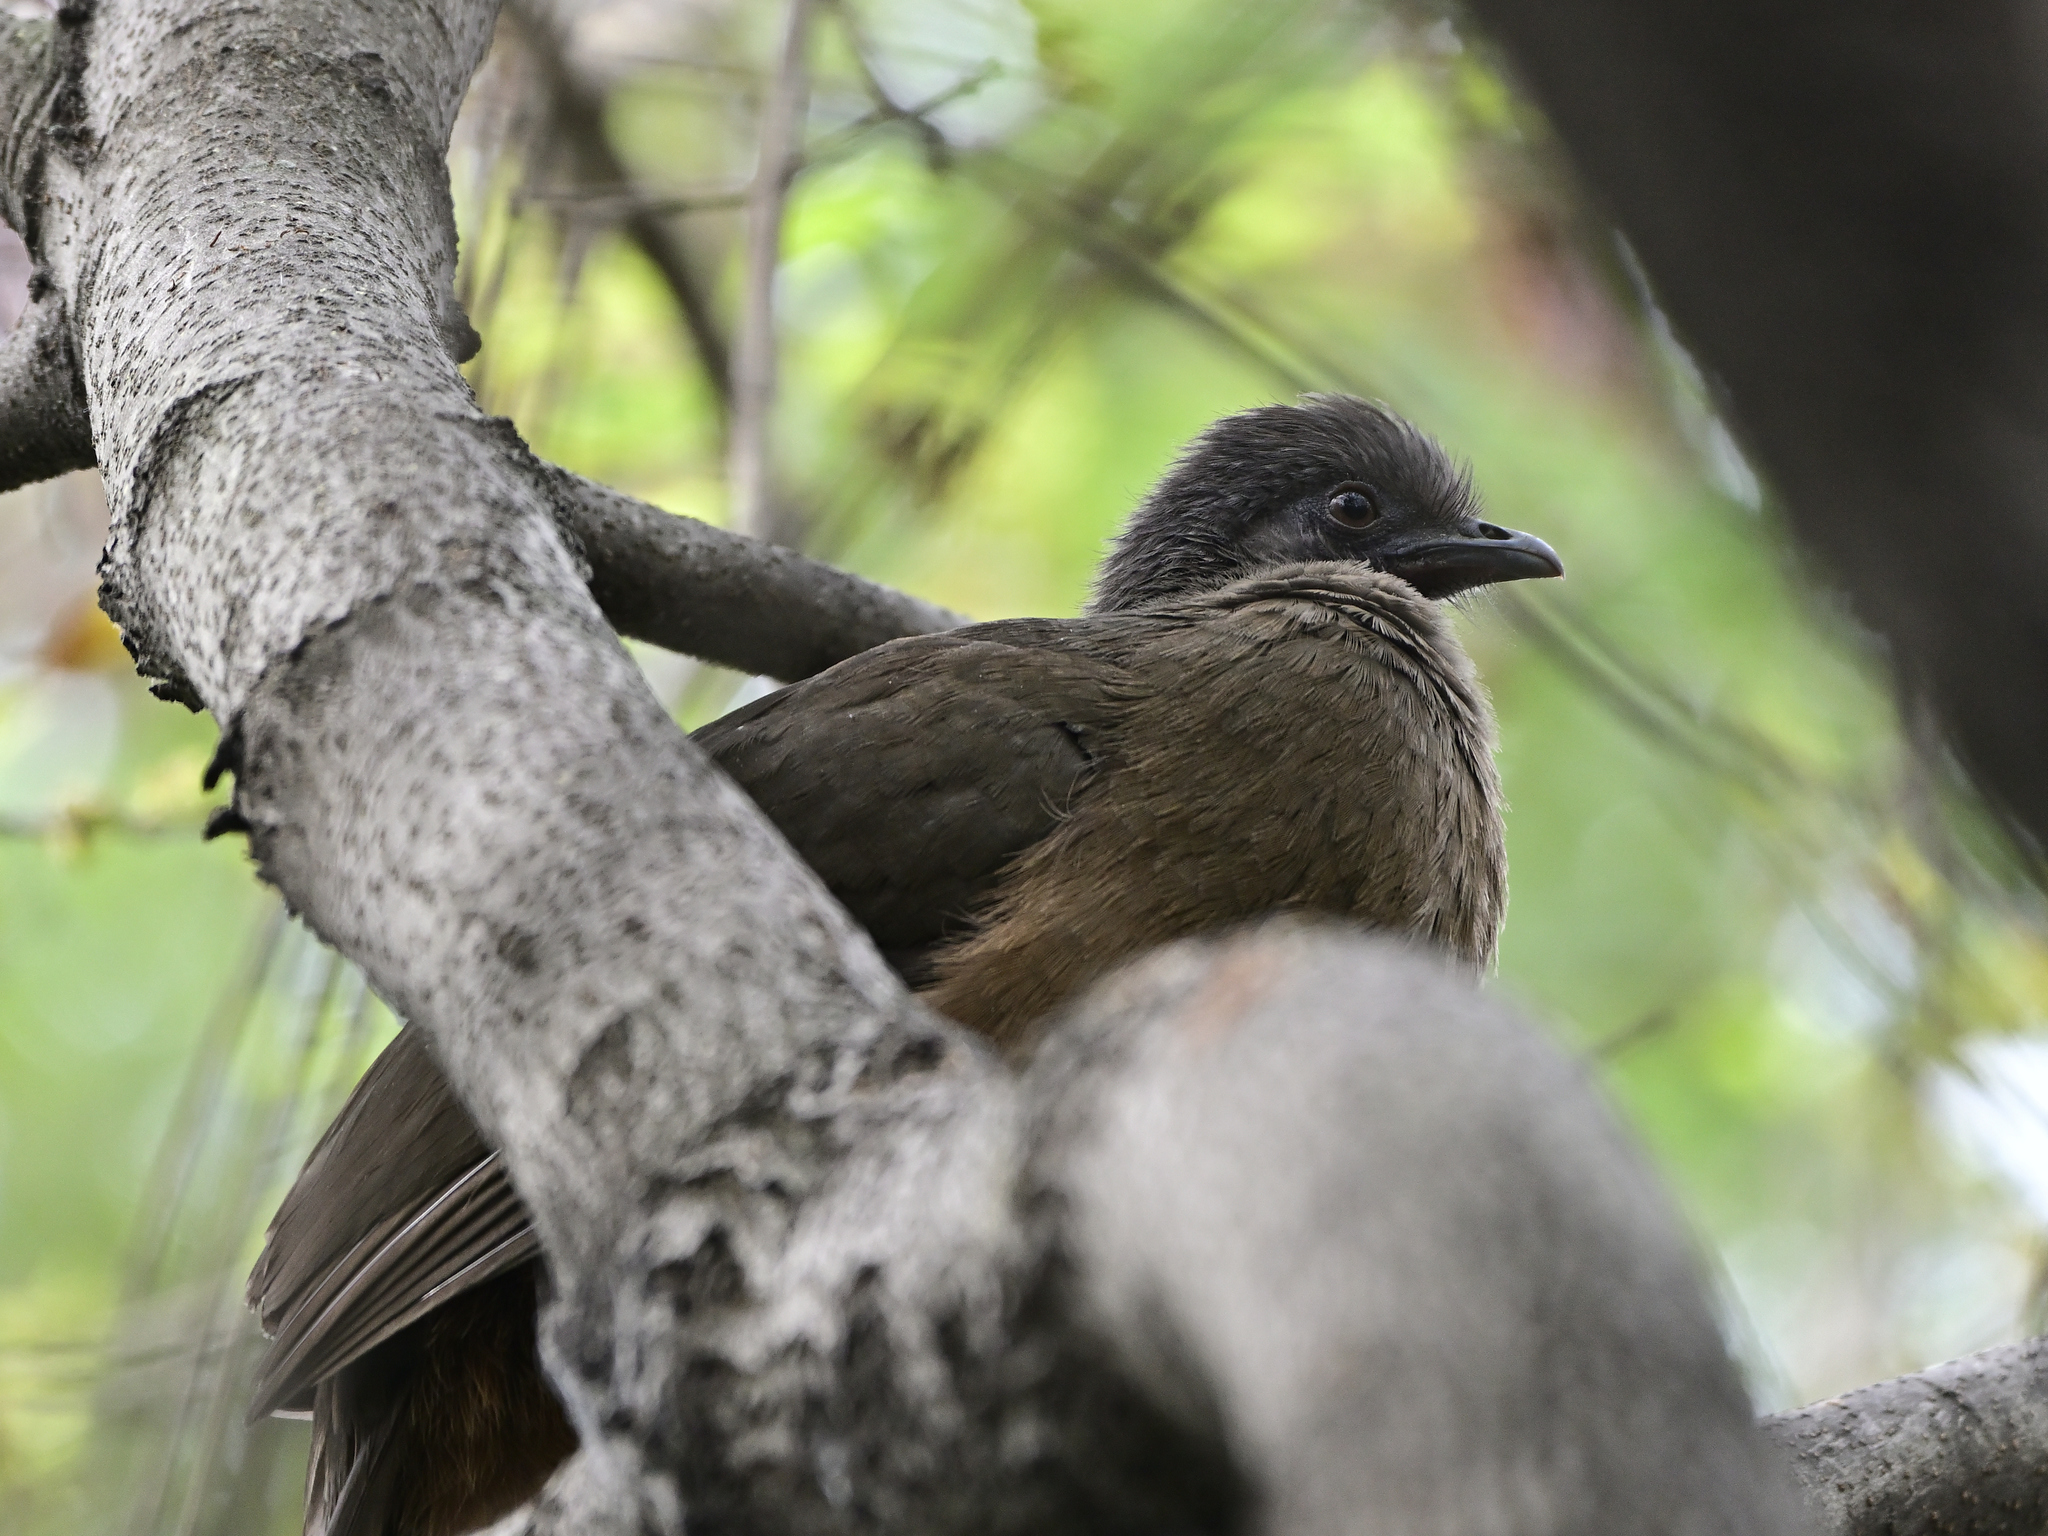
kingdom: Animalia
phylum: Chordata
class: Aves
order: Galliformes
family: Cracidae
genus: Ortalis
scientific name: Ortalis vetula
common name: Plain chachalaca
